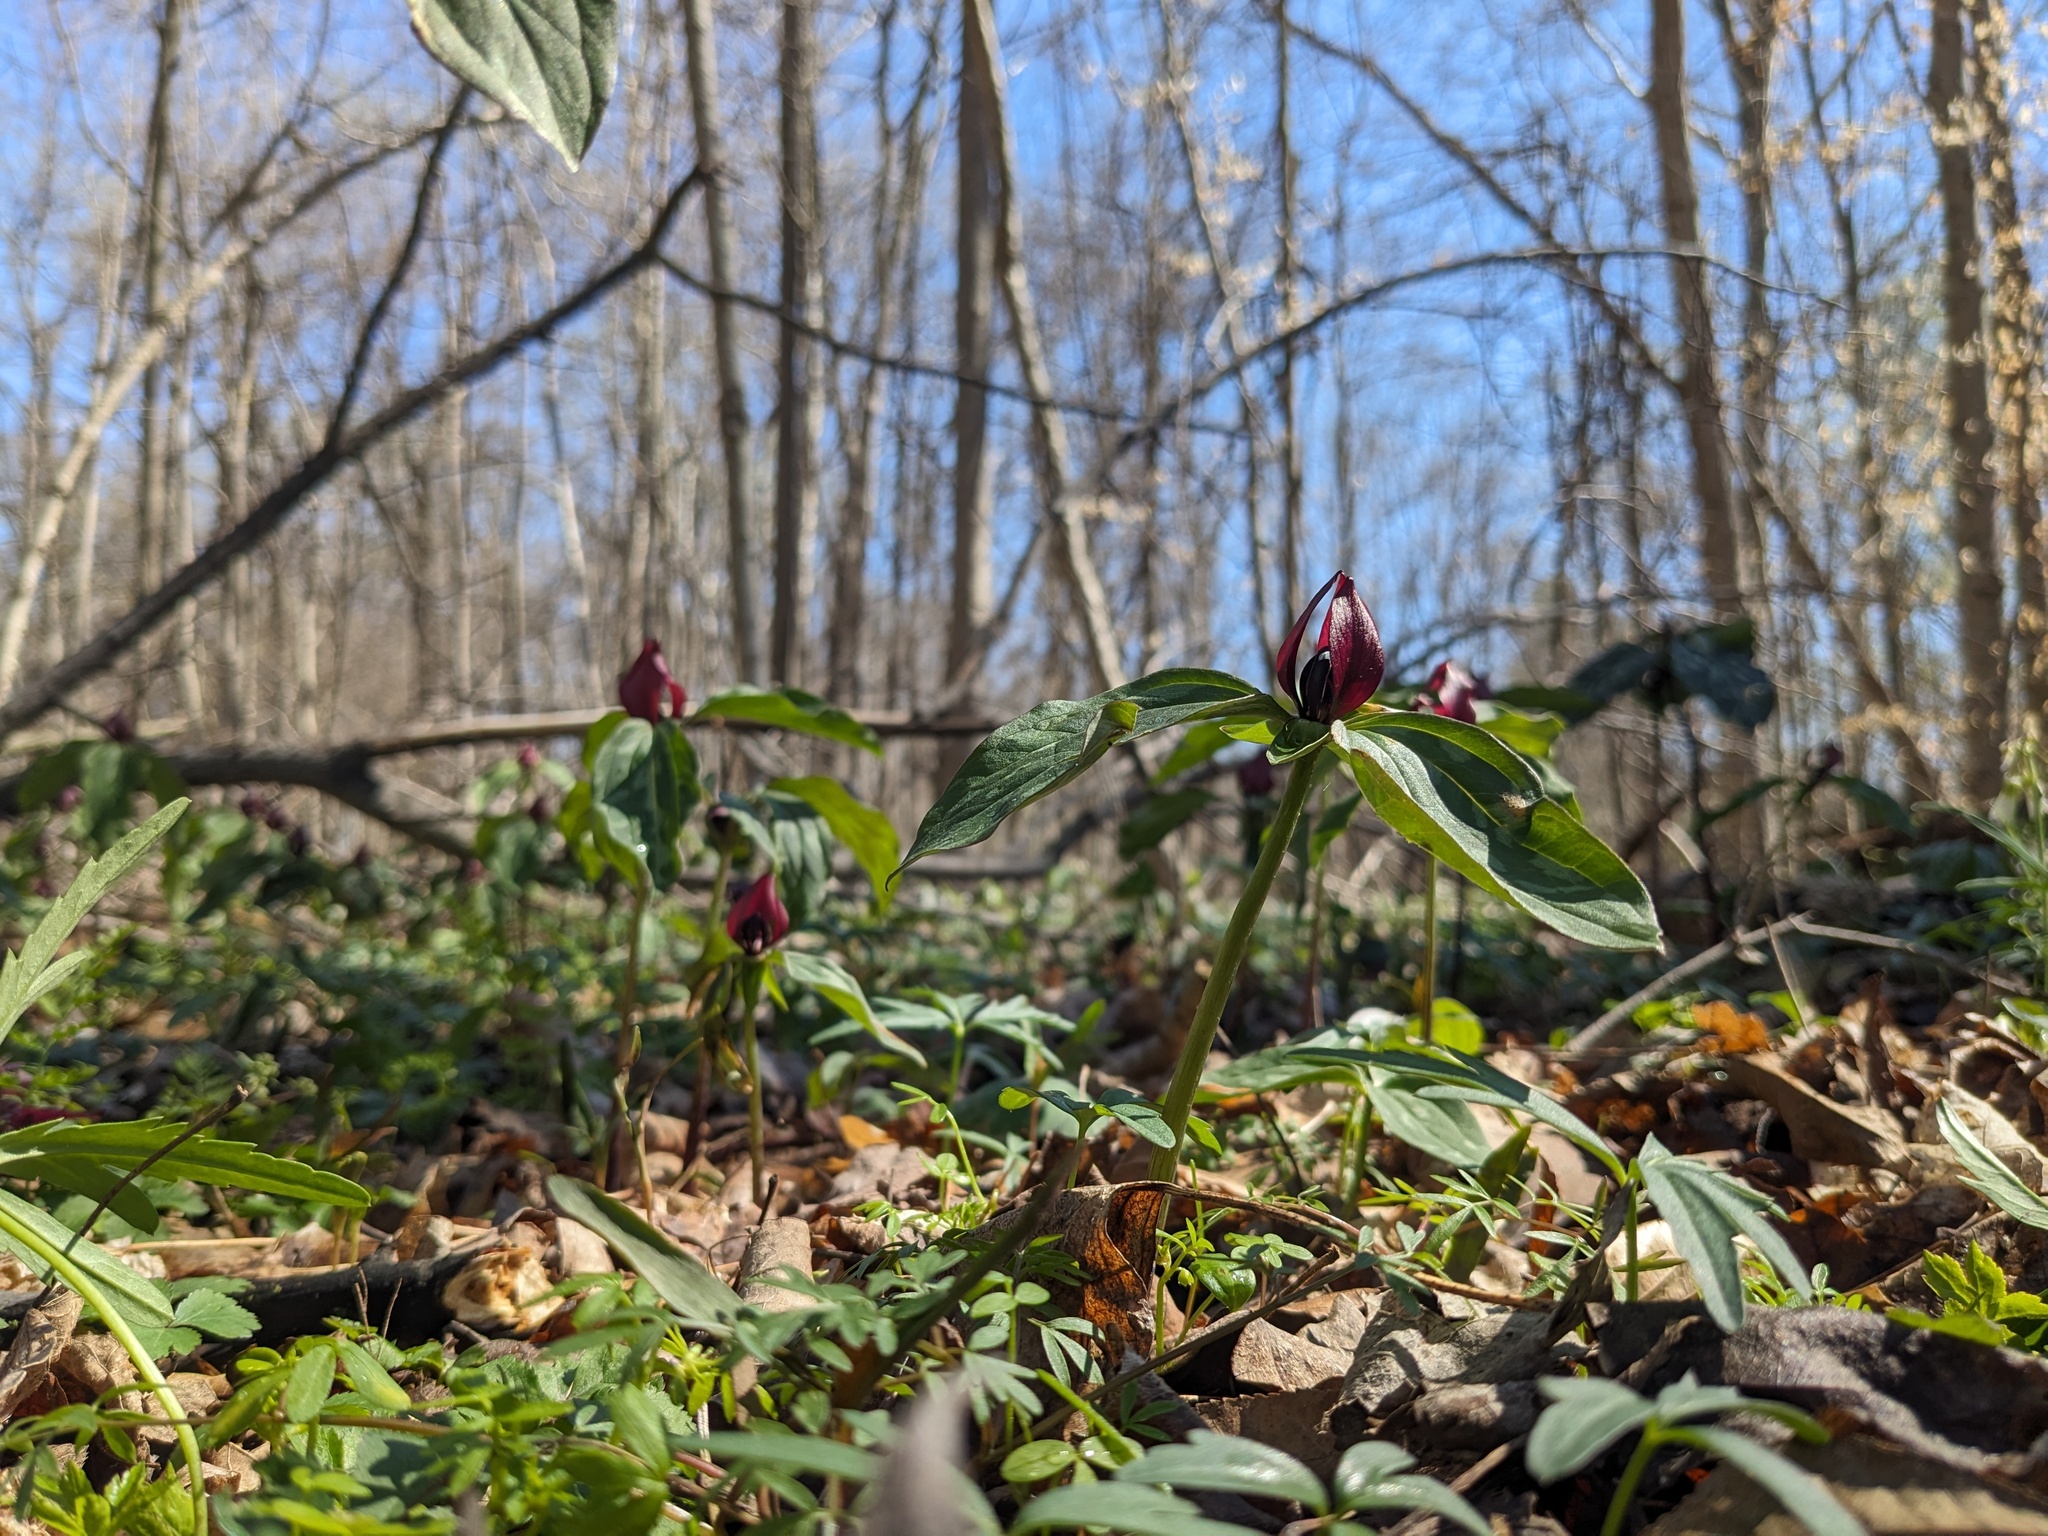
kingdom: Plantae
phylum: Tracheophyta
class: Liliopsida
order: Liliales
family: Melanthiaceae
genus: Trillium
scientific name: Trillium recurvatum
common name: Bloody butcher
